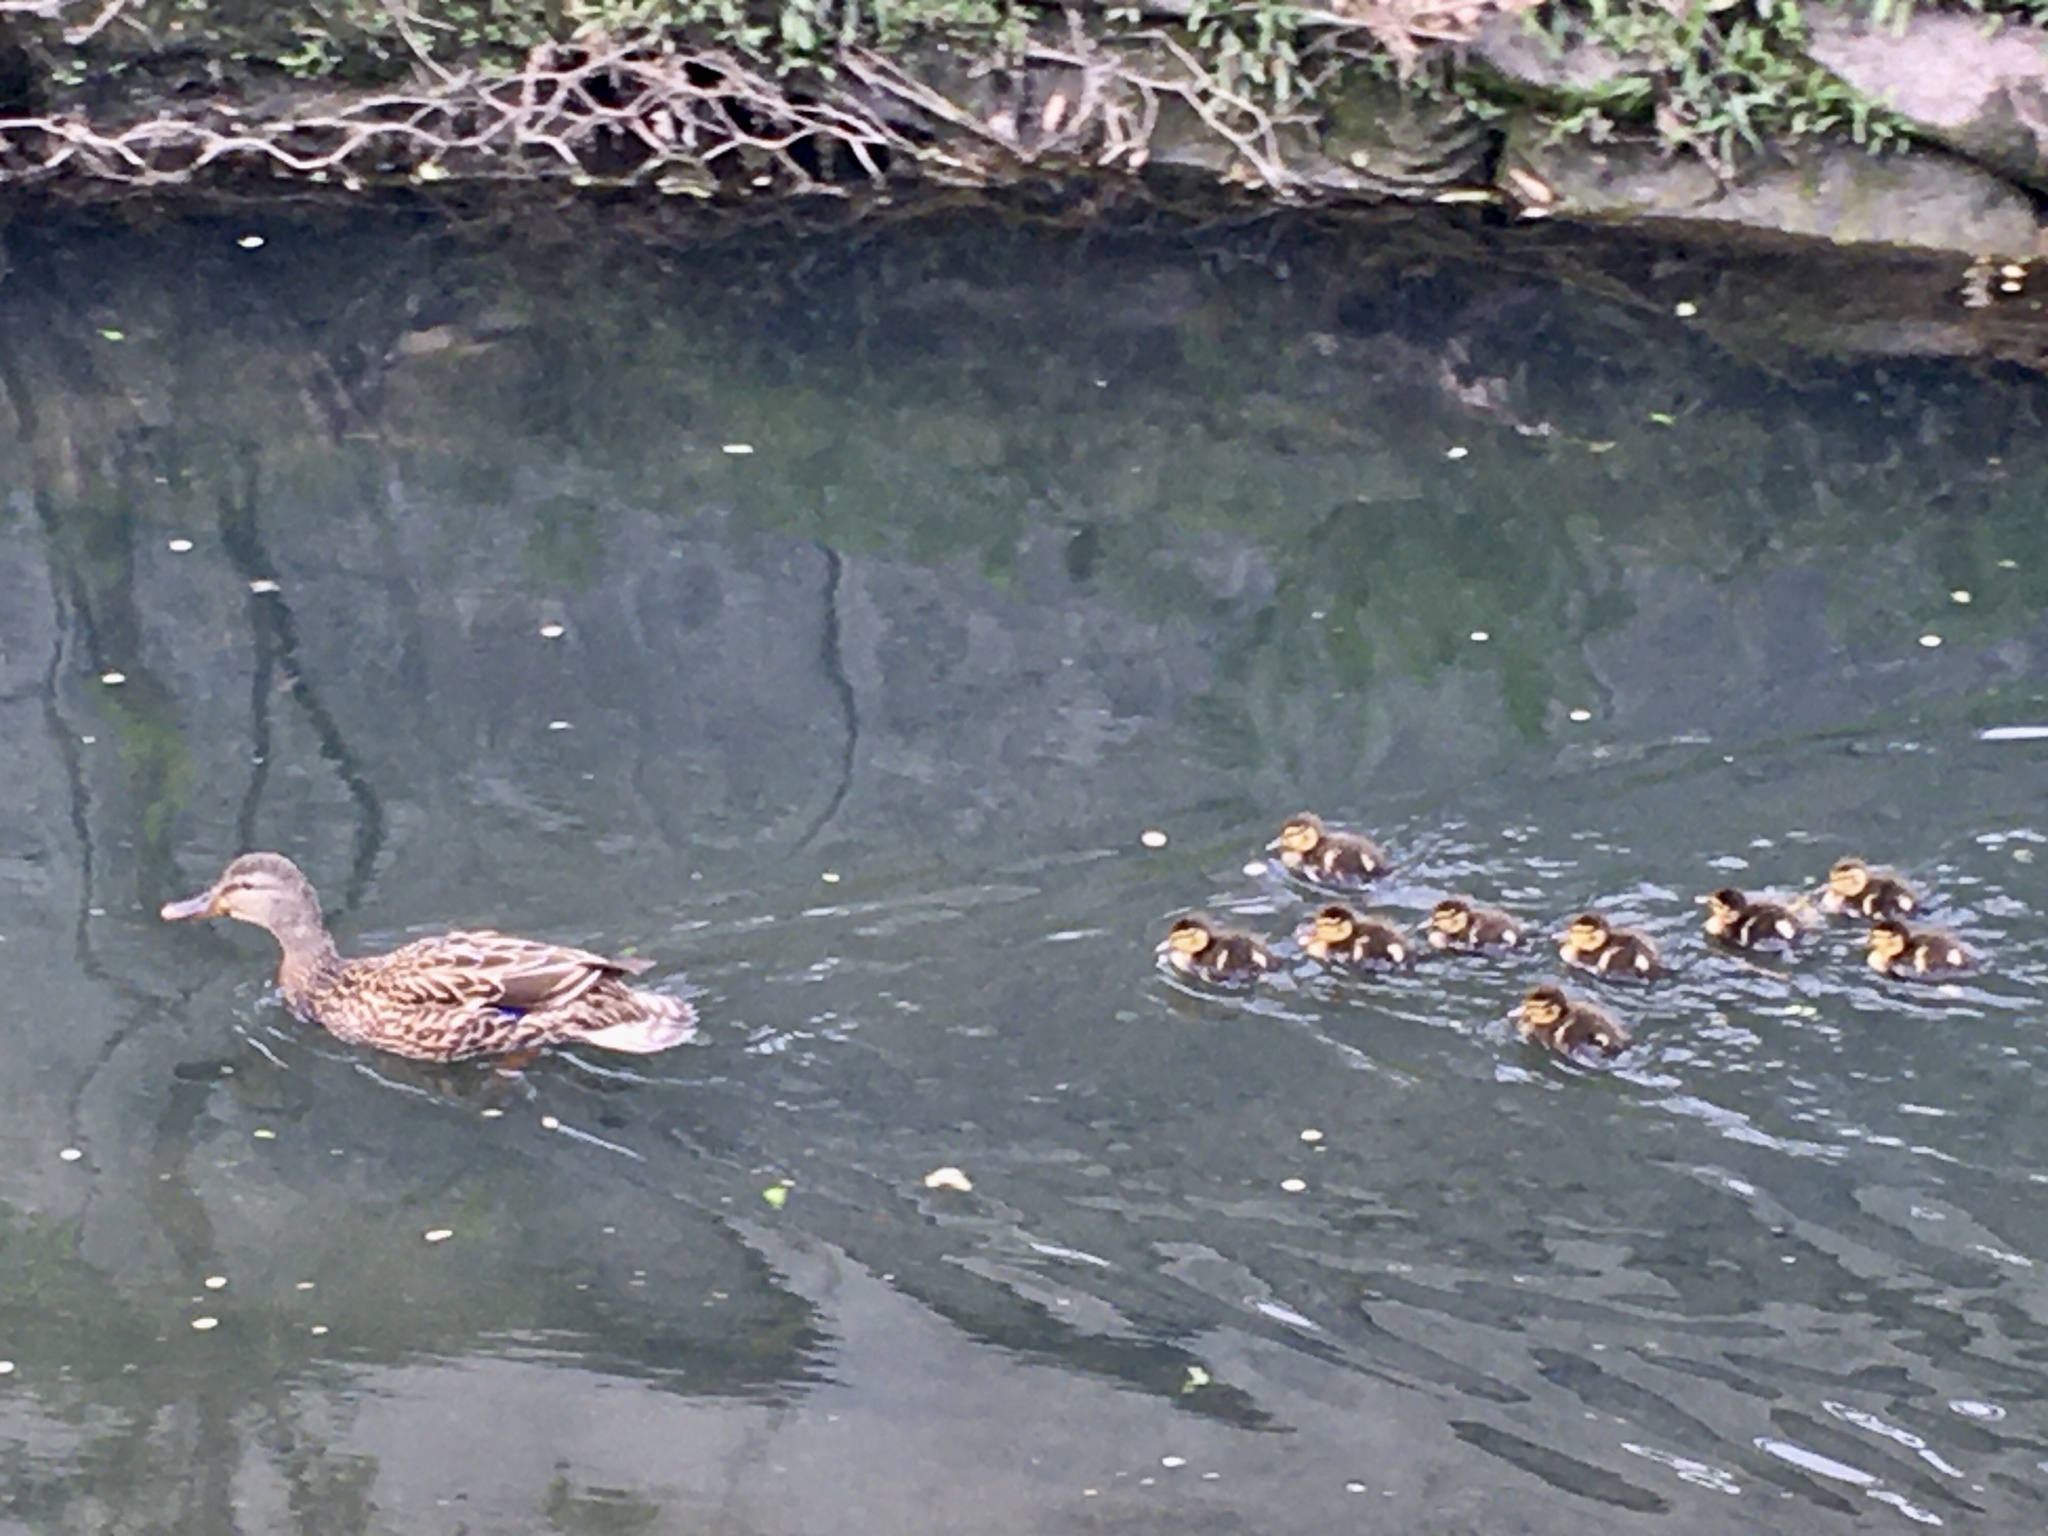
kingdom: Animalia
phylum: Chordata
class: Aves
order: Anseriformes
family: Anatidae
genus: Anas
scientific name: Anas platyrhynchos
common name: Mallard
